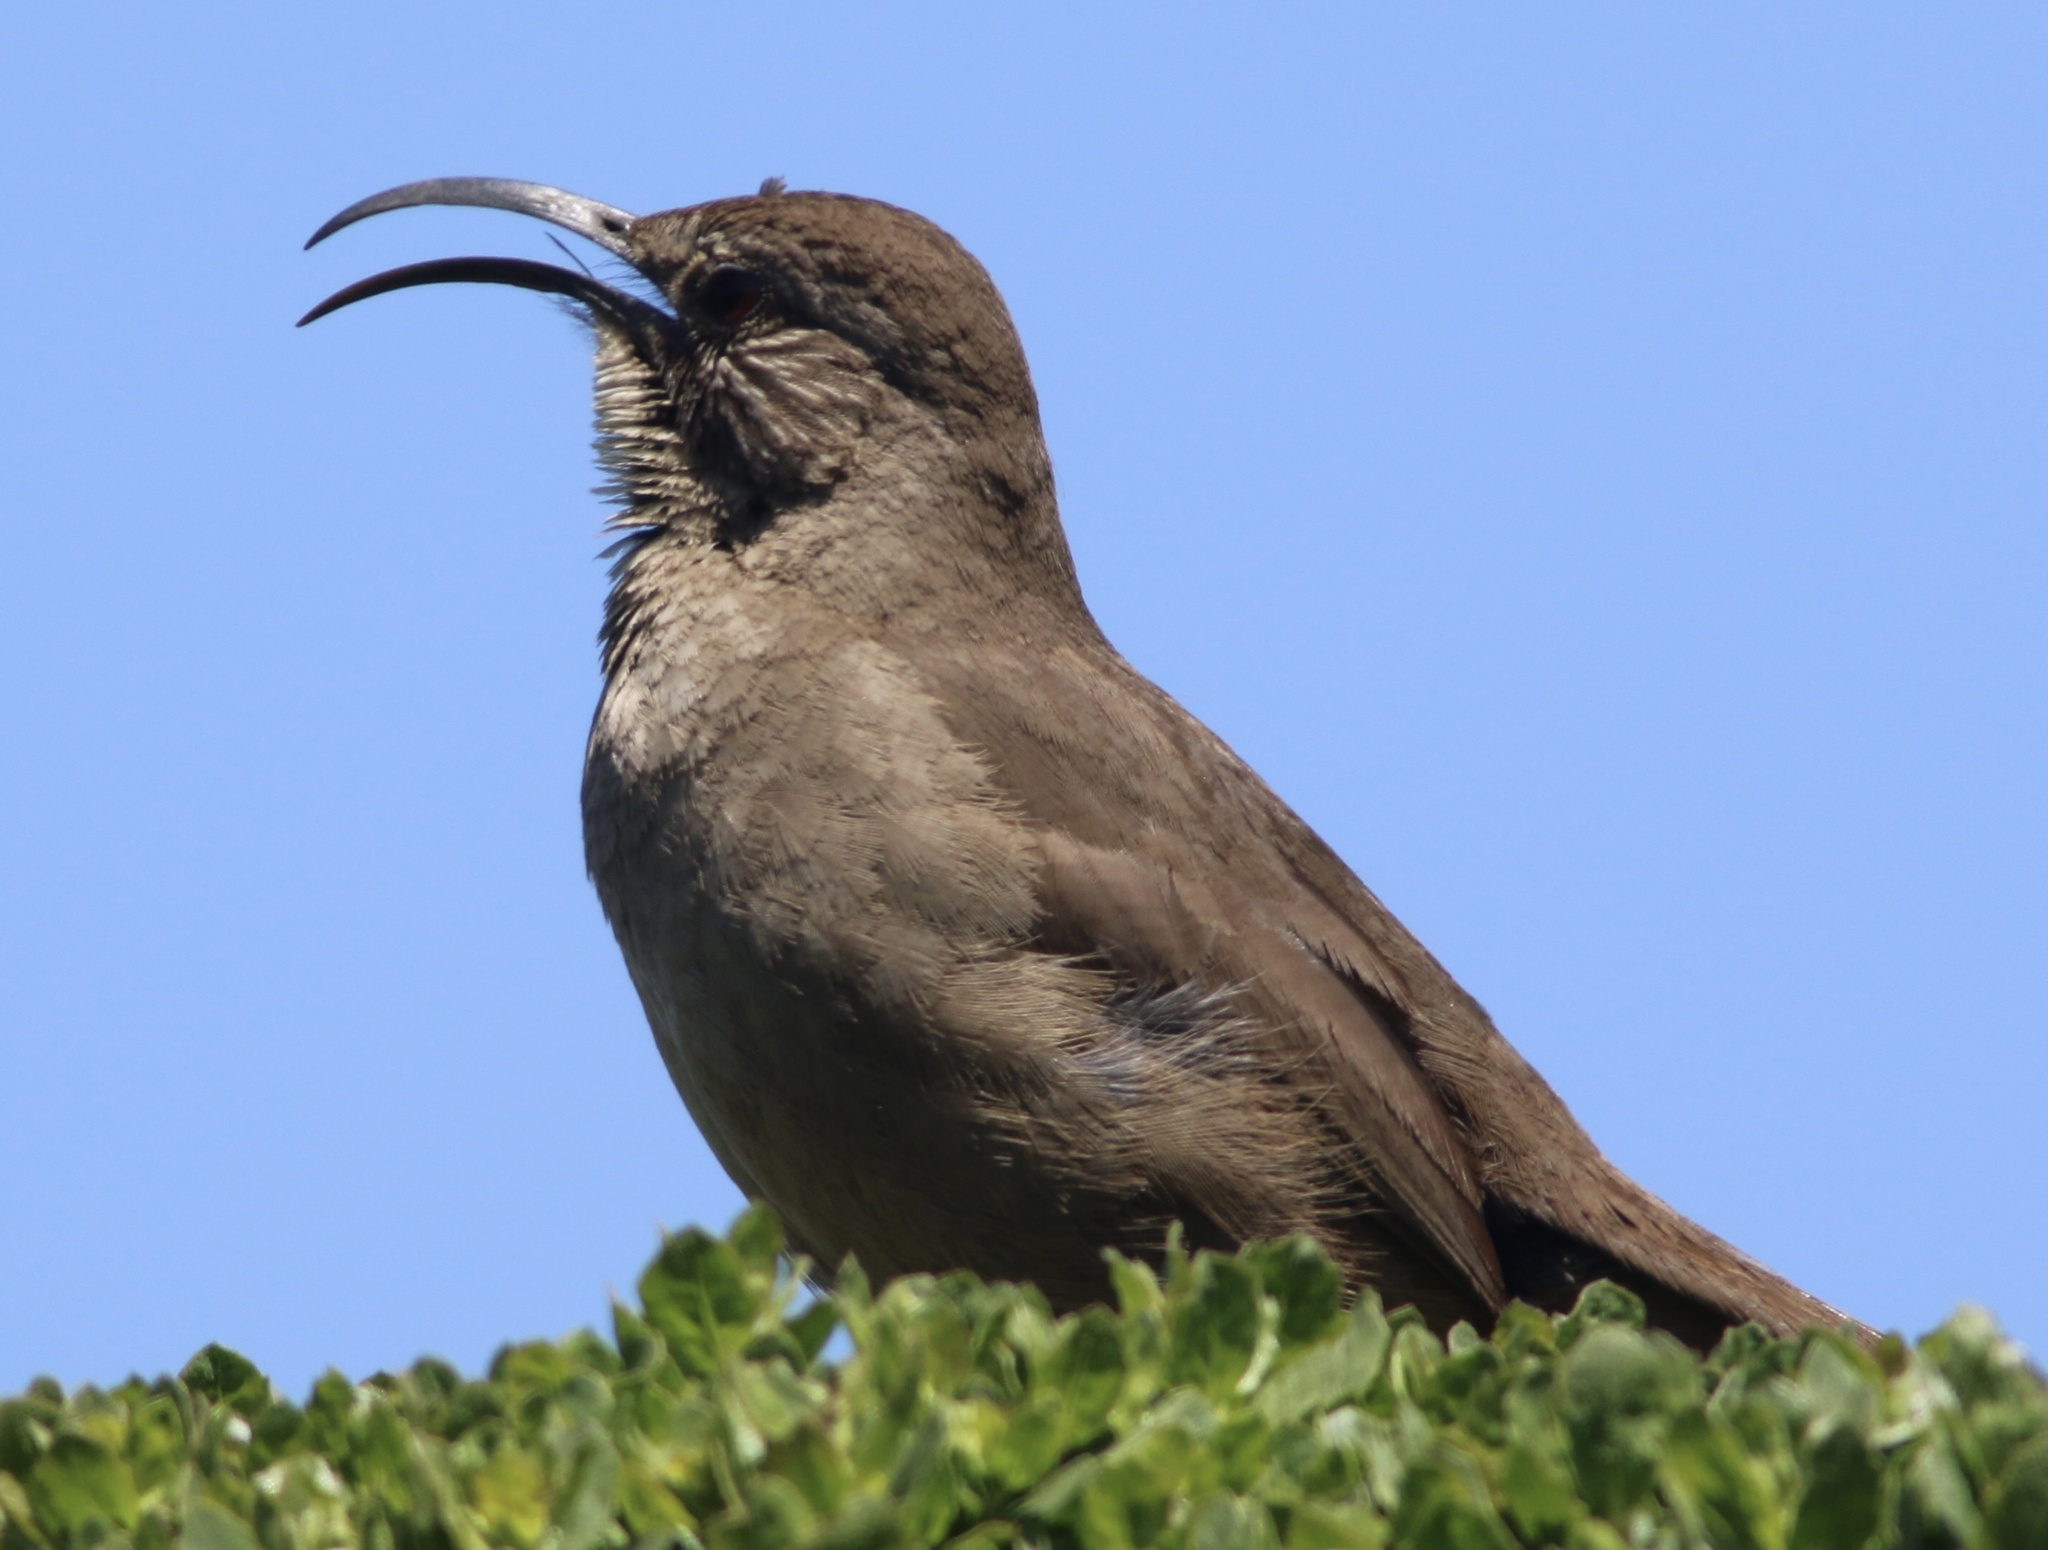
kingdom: Animalia
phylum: Chordata
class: Aves
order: Passeriformes
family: Mimidae
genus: Toxostoma
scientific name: Toxostoma redivivum
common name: California thrasher
